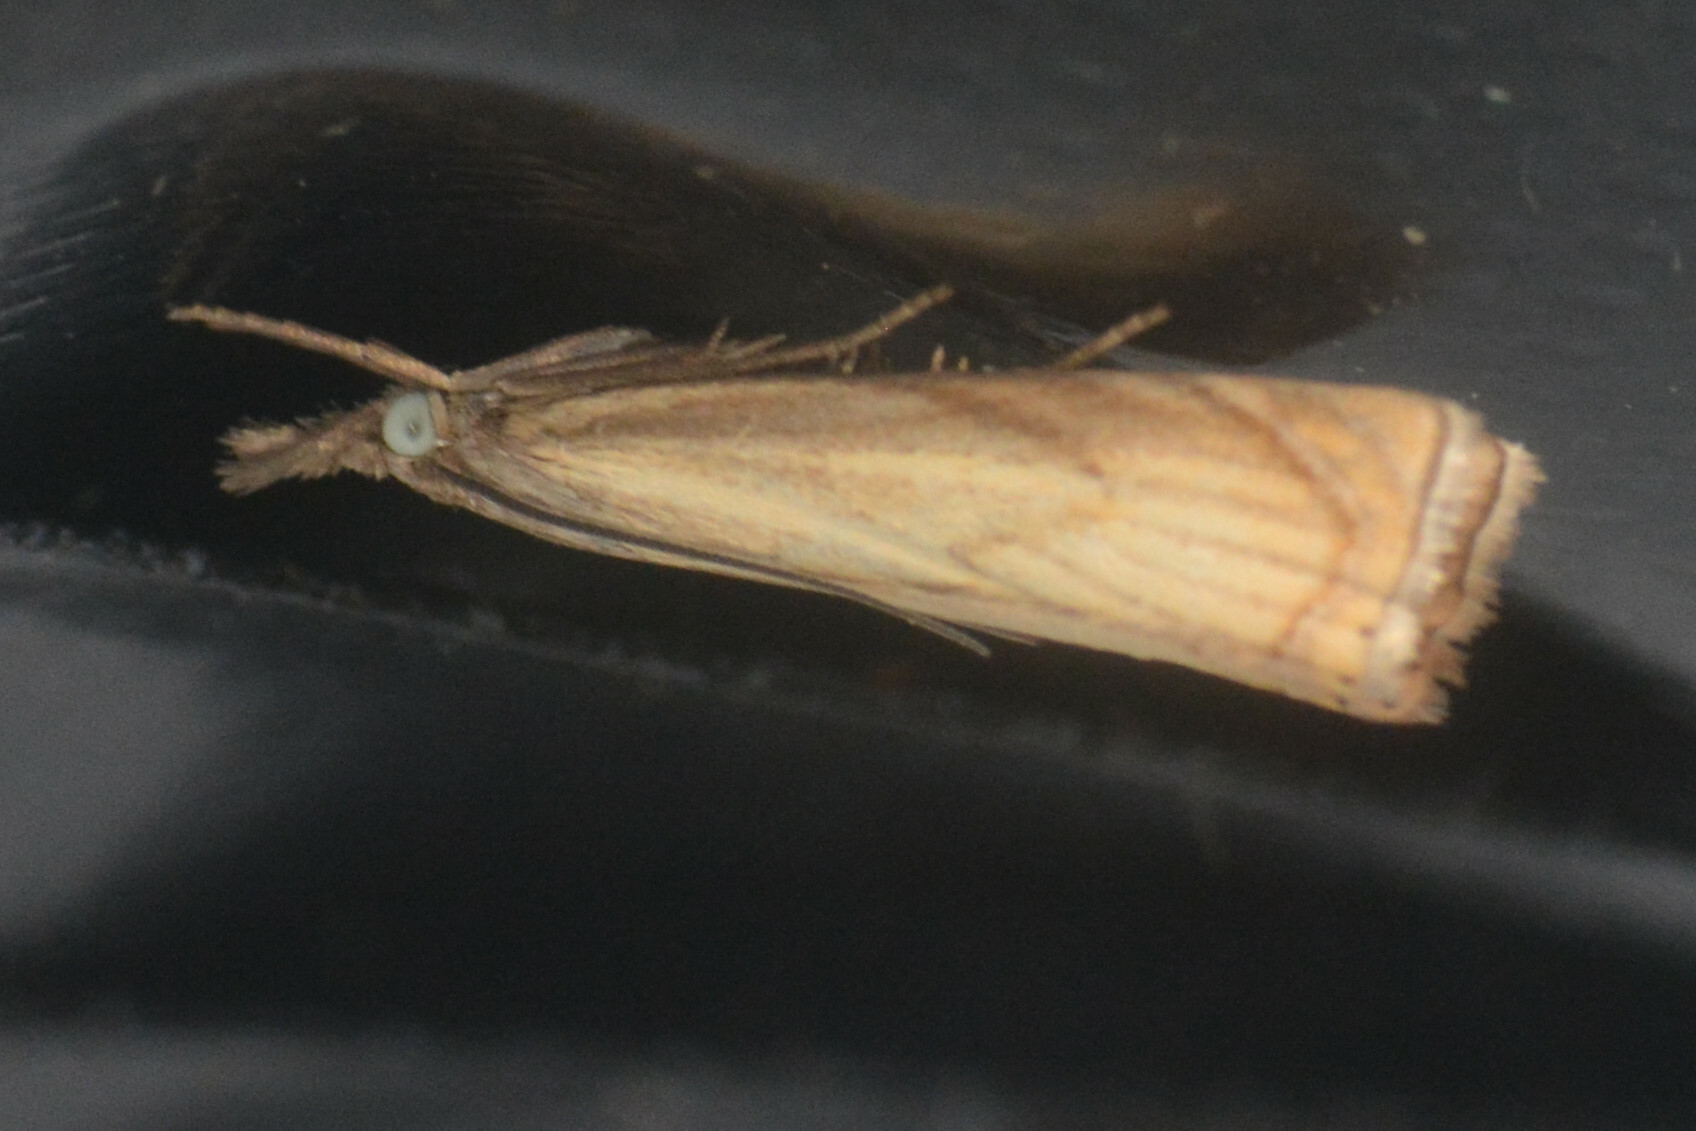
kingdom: Animalia
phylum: Arthropoda
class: Insecta
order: Lepidoptera
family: Crambidae
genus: Chrysoteuchia
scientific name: Chrysoteuchia culmella
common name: Garden grass-veneer
